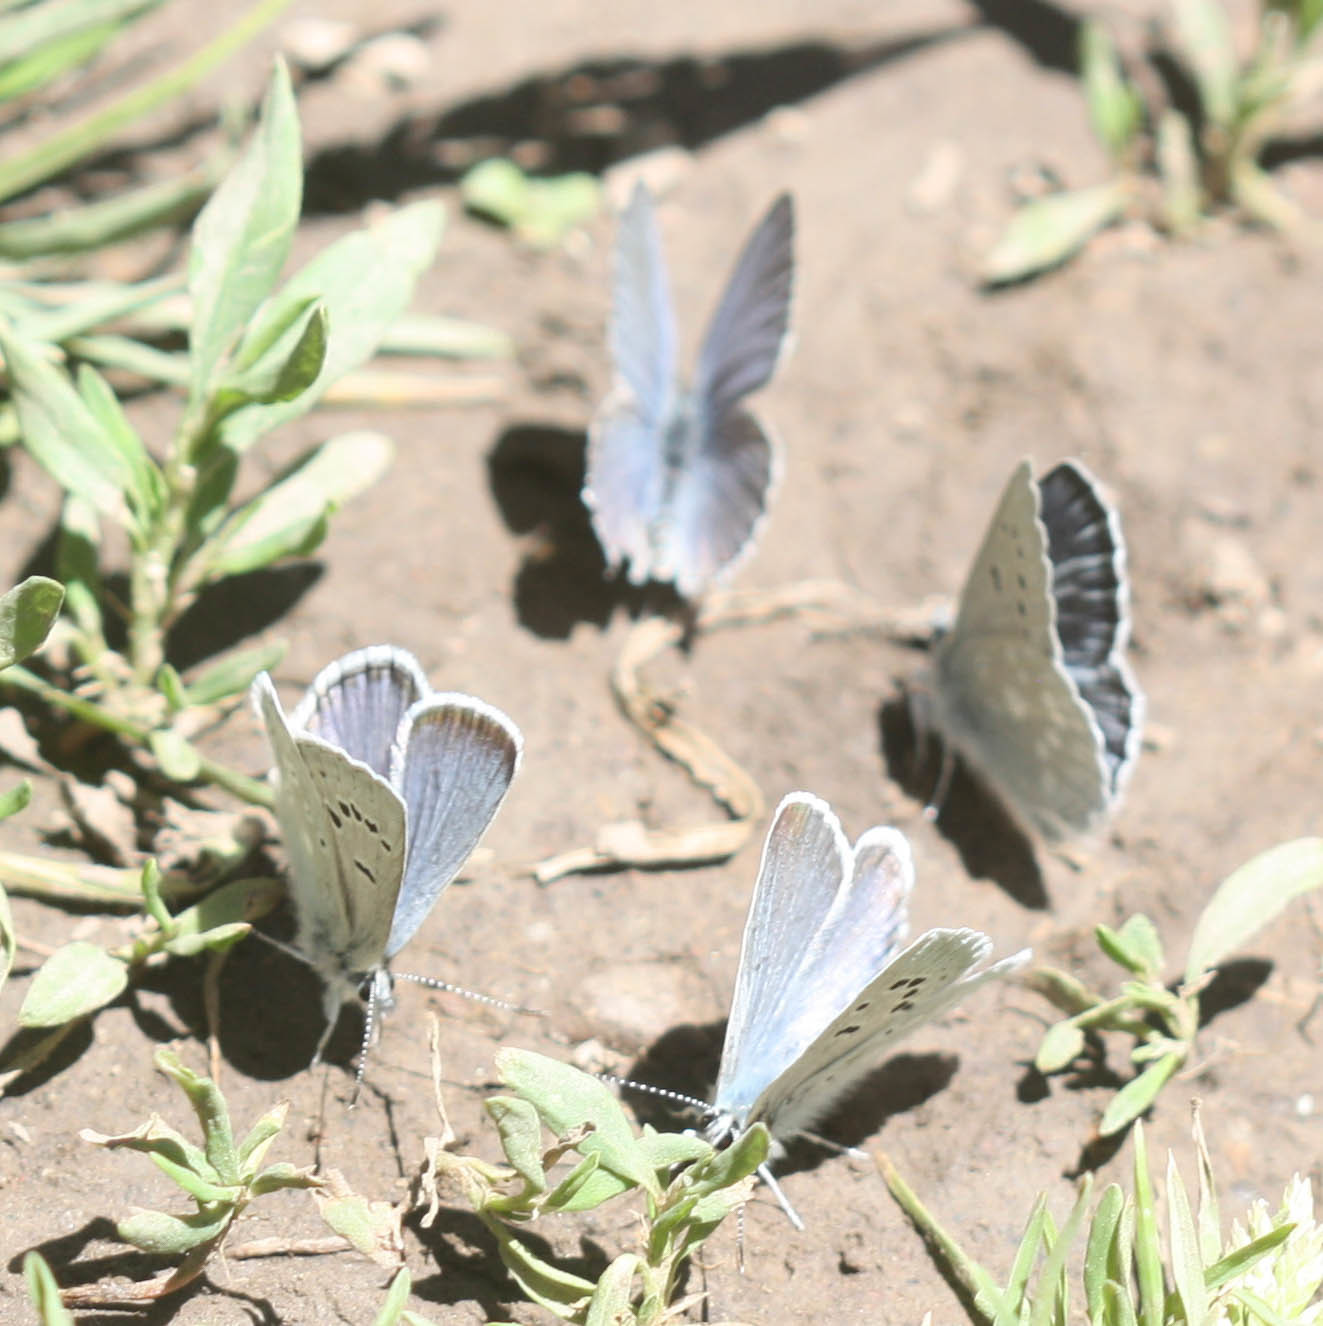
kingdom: Animalia
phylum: Arthropoda
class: Insecta
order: Lepidoptera
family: Lycaenidae
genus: Icaricia
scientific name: Icaricia icarioides
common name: Boisduval's blue
